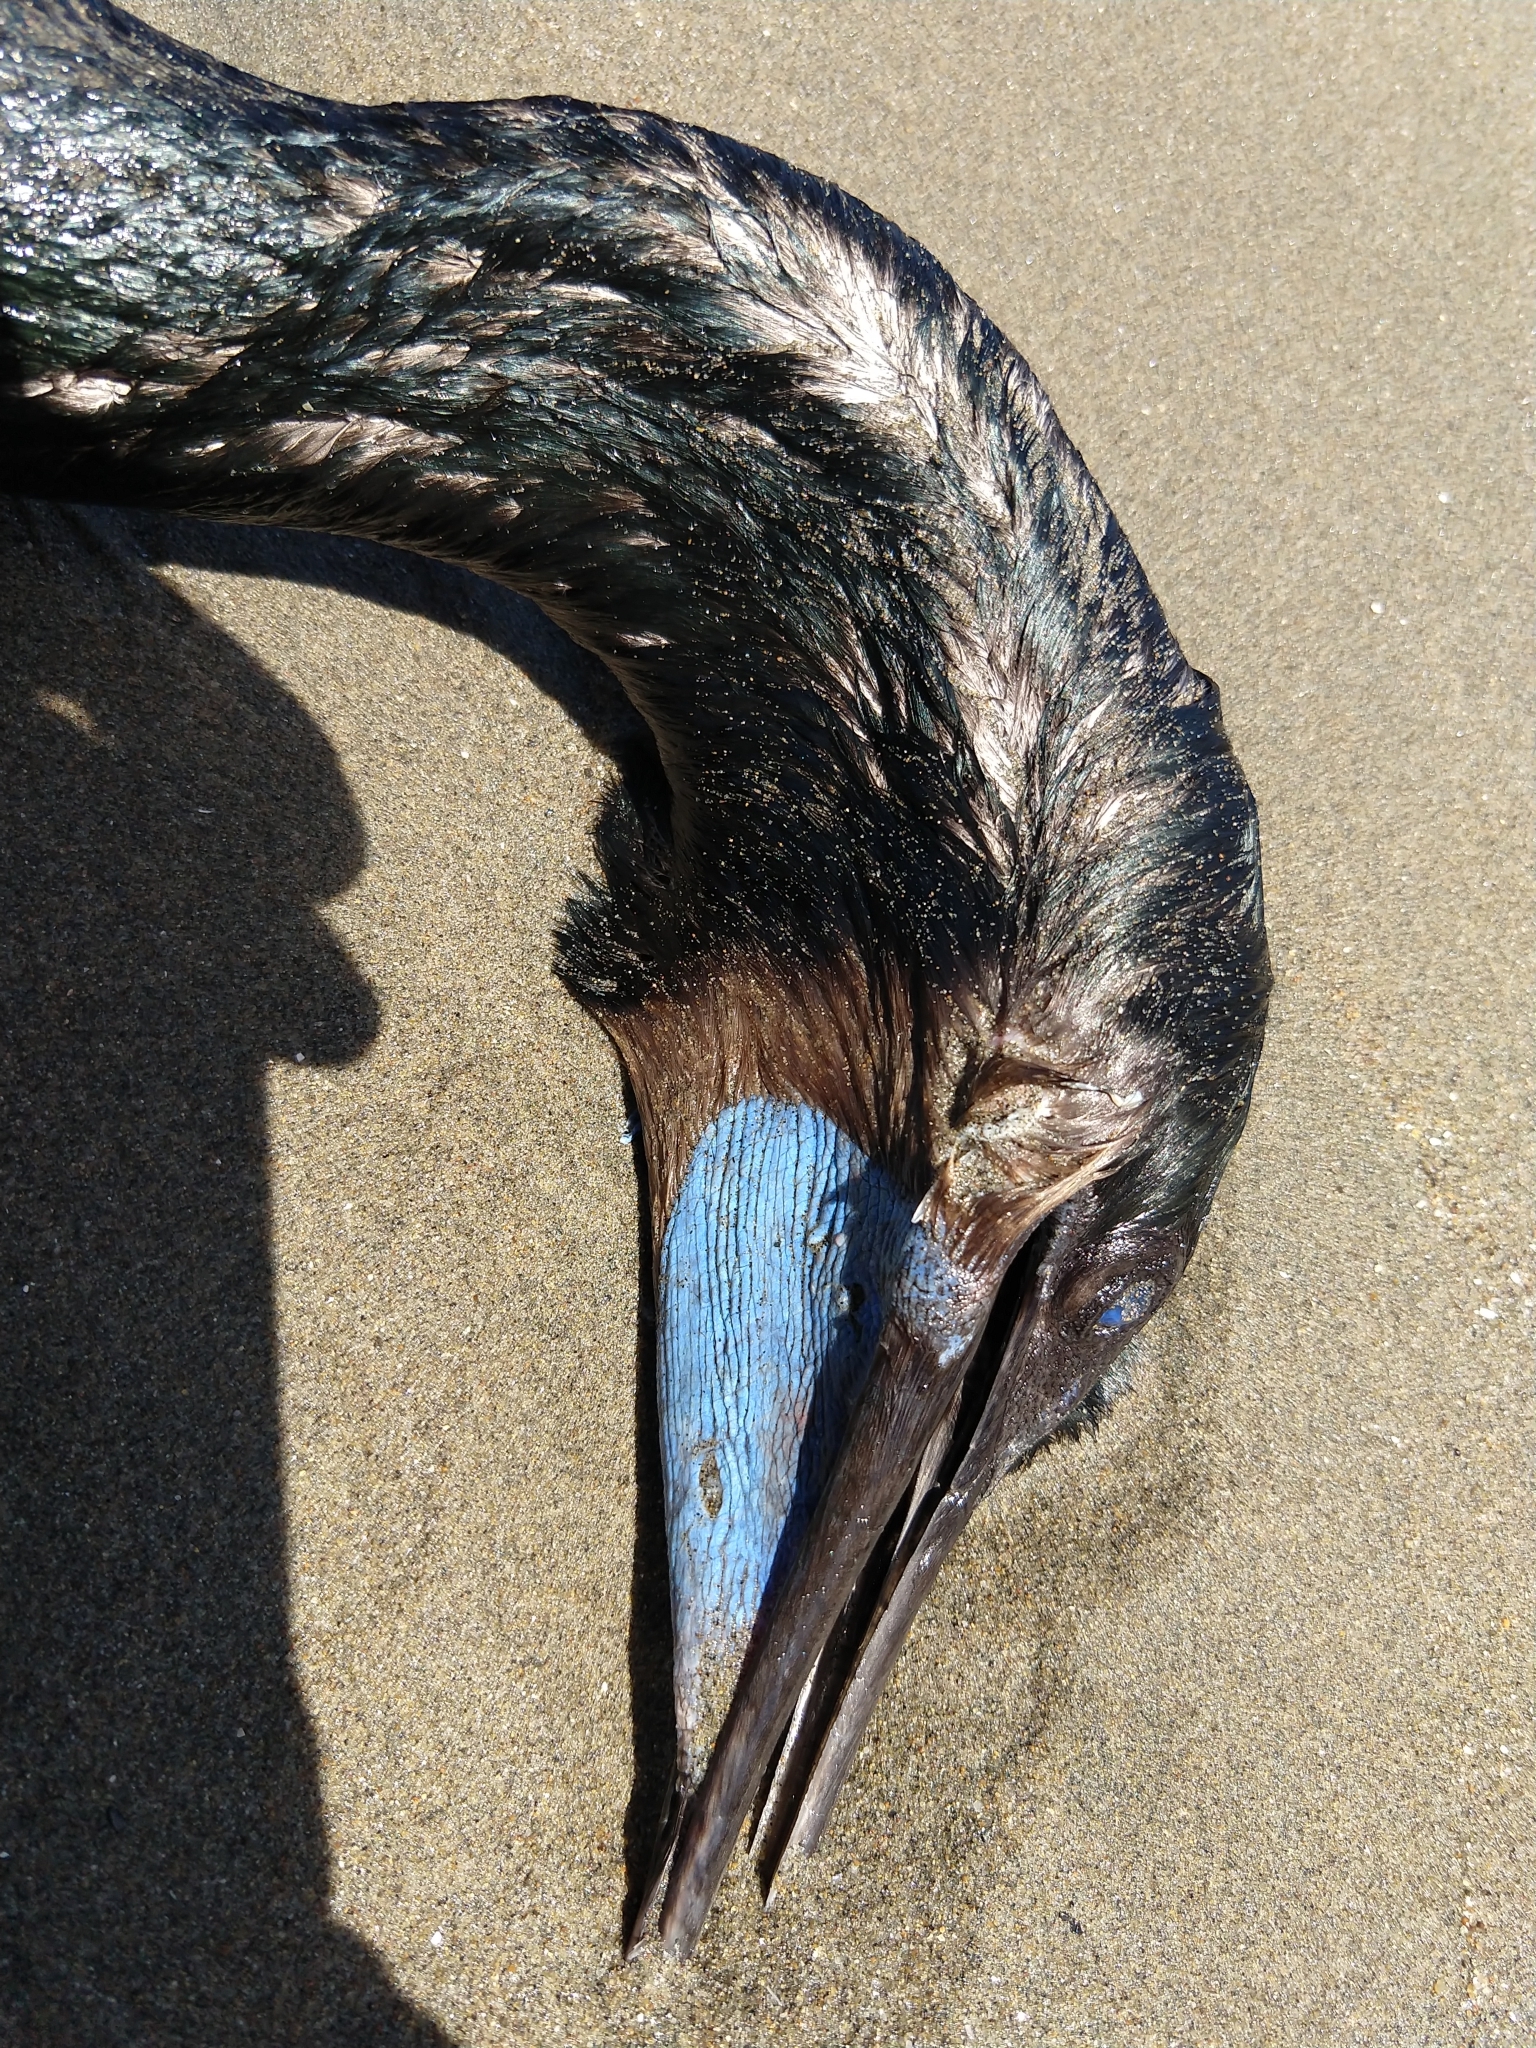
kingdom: Animalia
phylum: Chordata
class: Aves
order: Suliformes
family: Phalacrocoracidae
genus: Urile
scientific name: Urile penicillatus
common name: Brandt's cormorant
